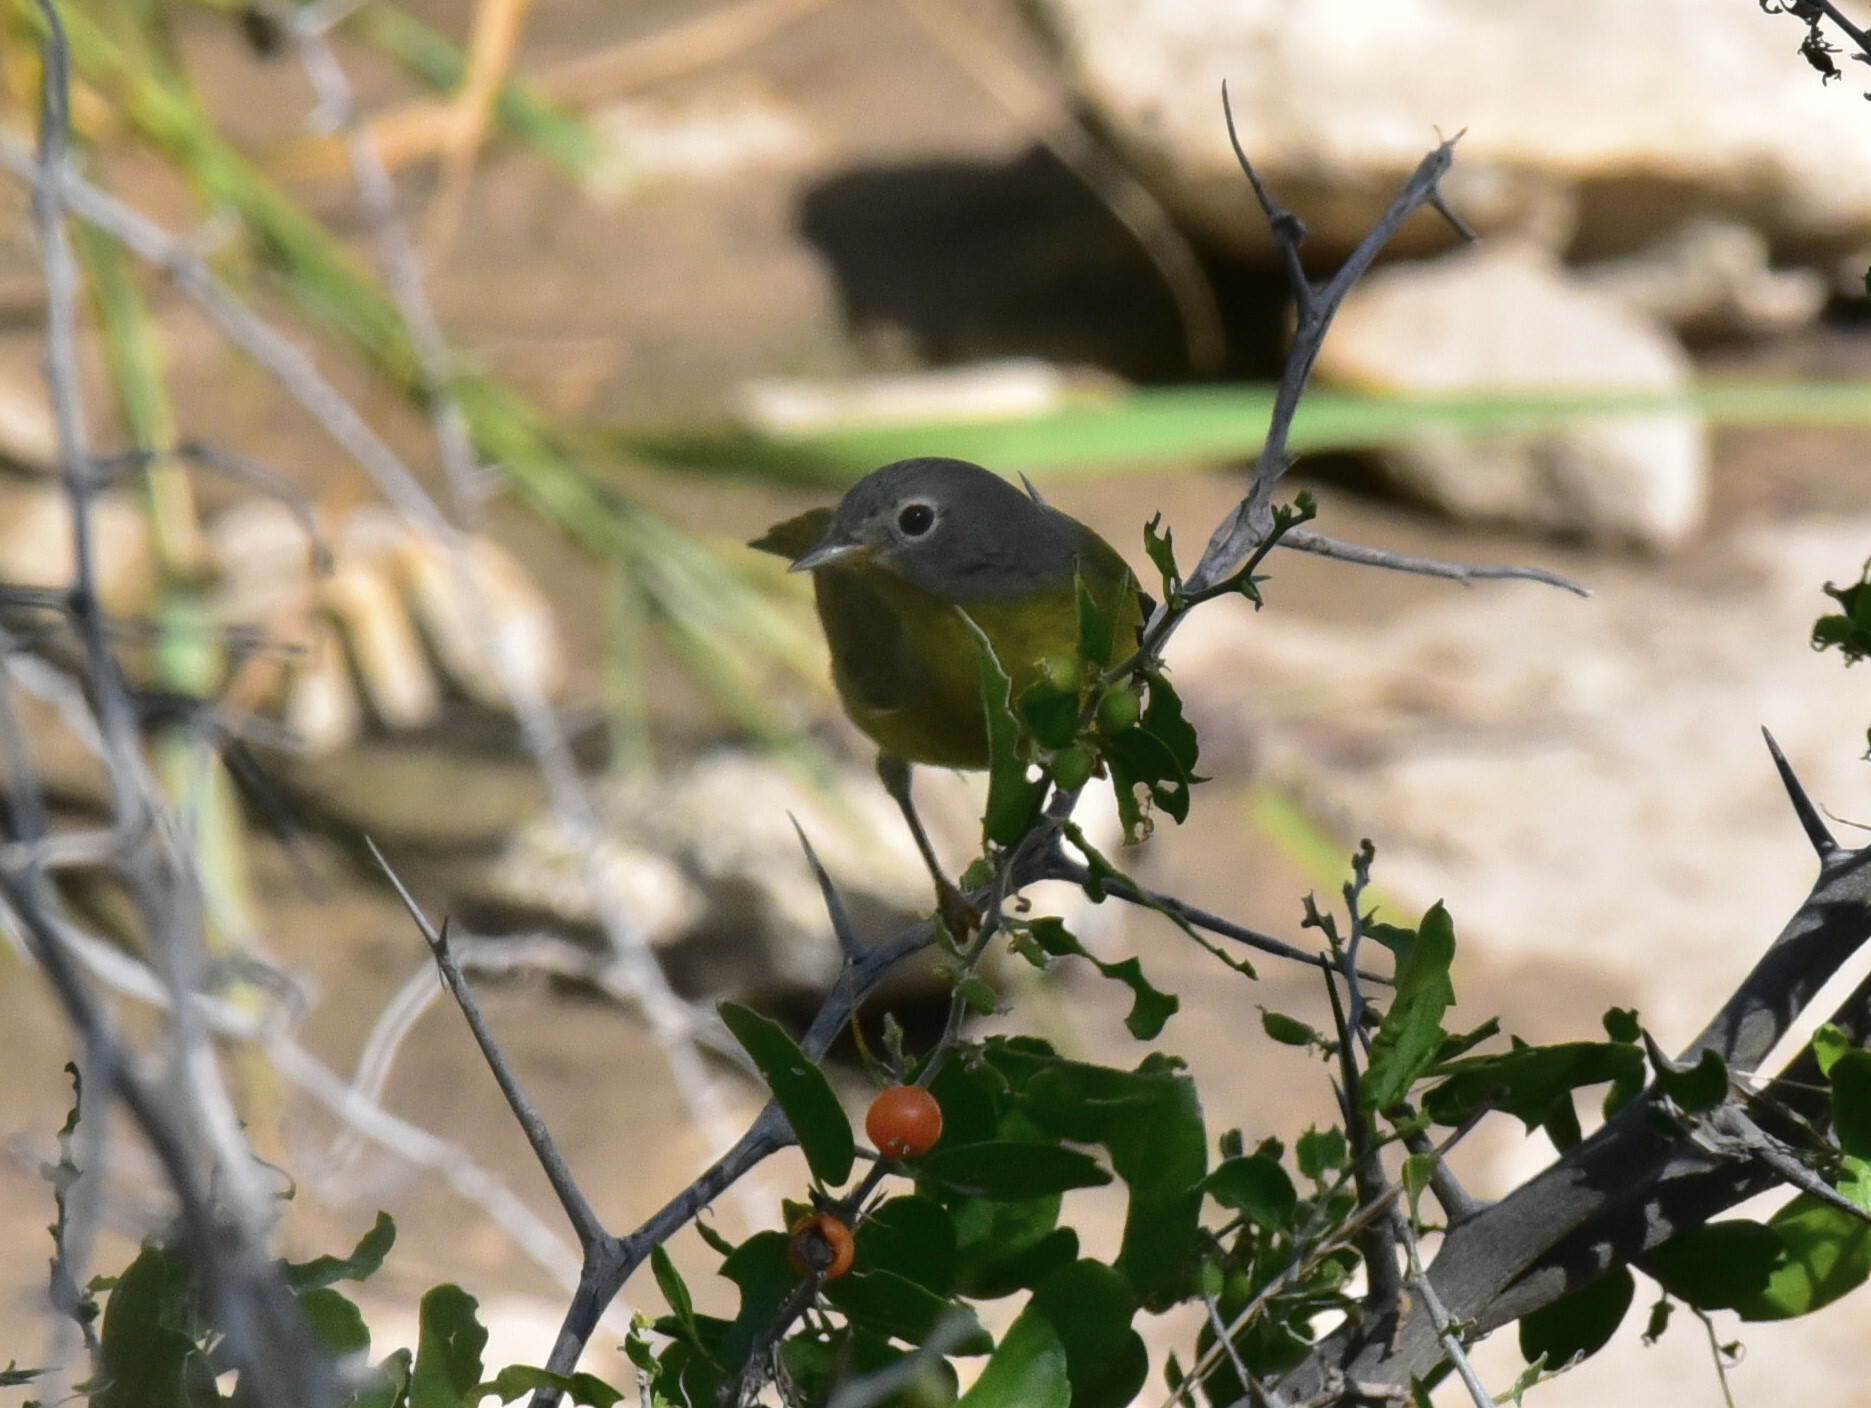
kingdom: Animalia
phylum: Chordata
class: Aves
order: Passeriformes
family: Parulidae
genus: Leiothlypis
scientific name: Leiothlypis ruficapilla
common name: Nashville warbler
